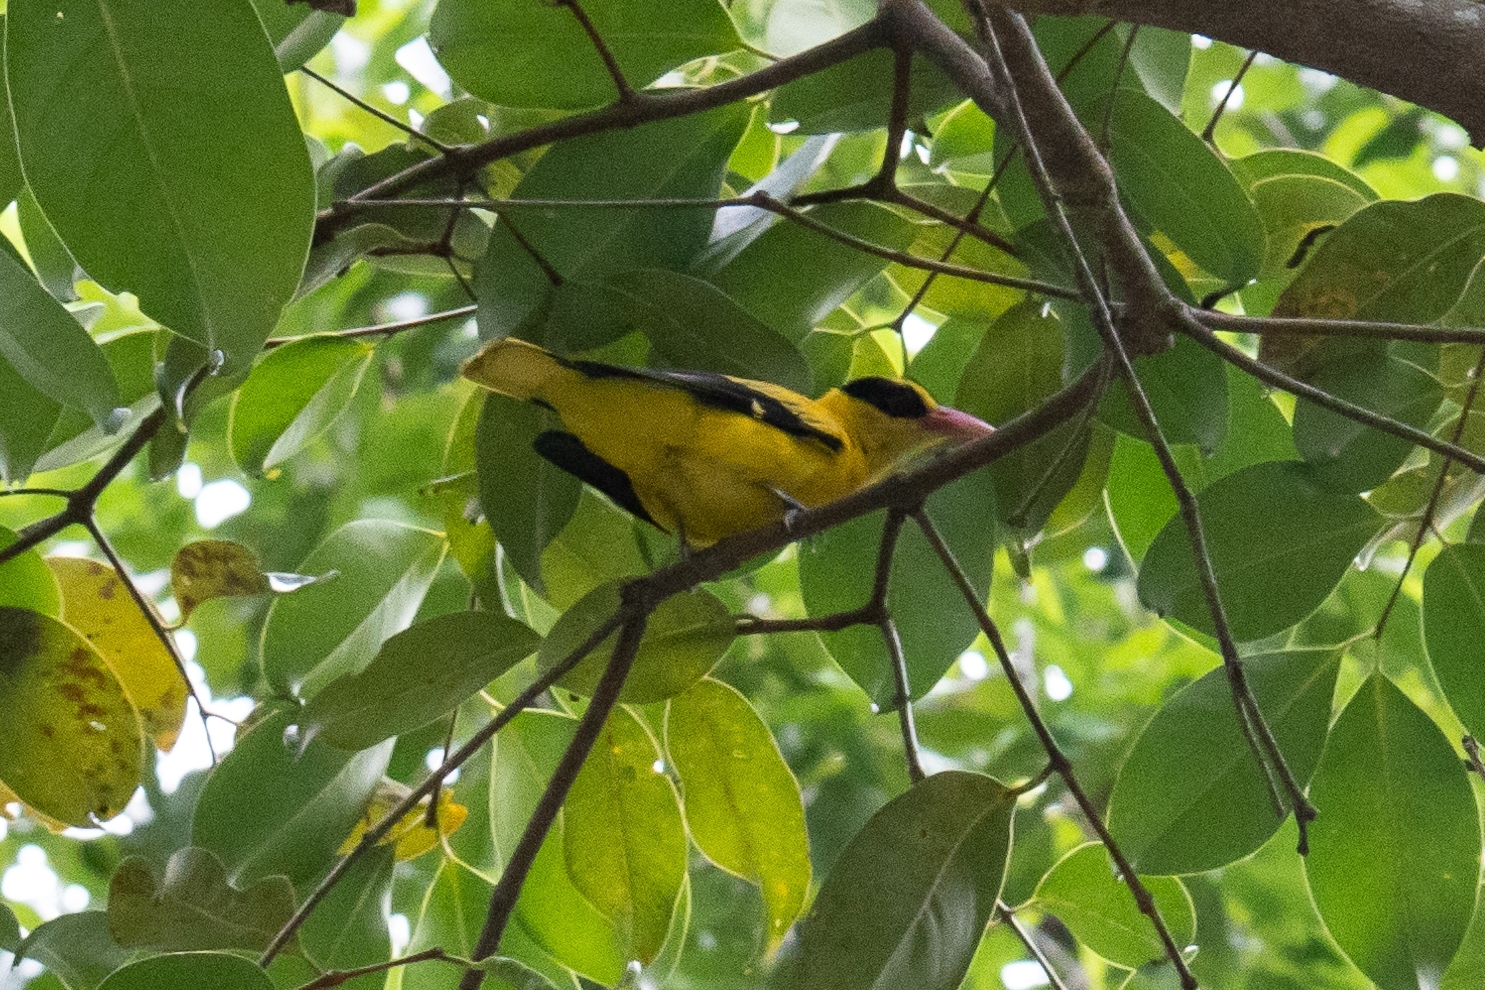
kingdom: Animalia
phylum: Chordata
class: Aves
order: Passeriformes
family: Oriolidae
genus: Oriolus
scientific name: Oriolus chinensis
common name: Black-naped oriole
